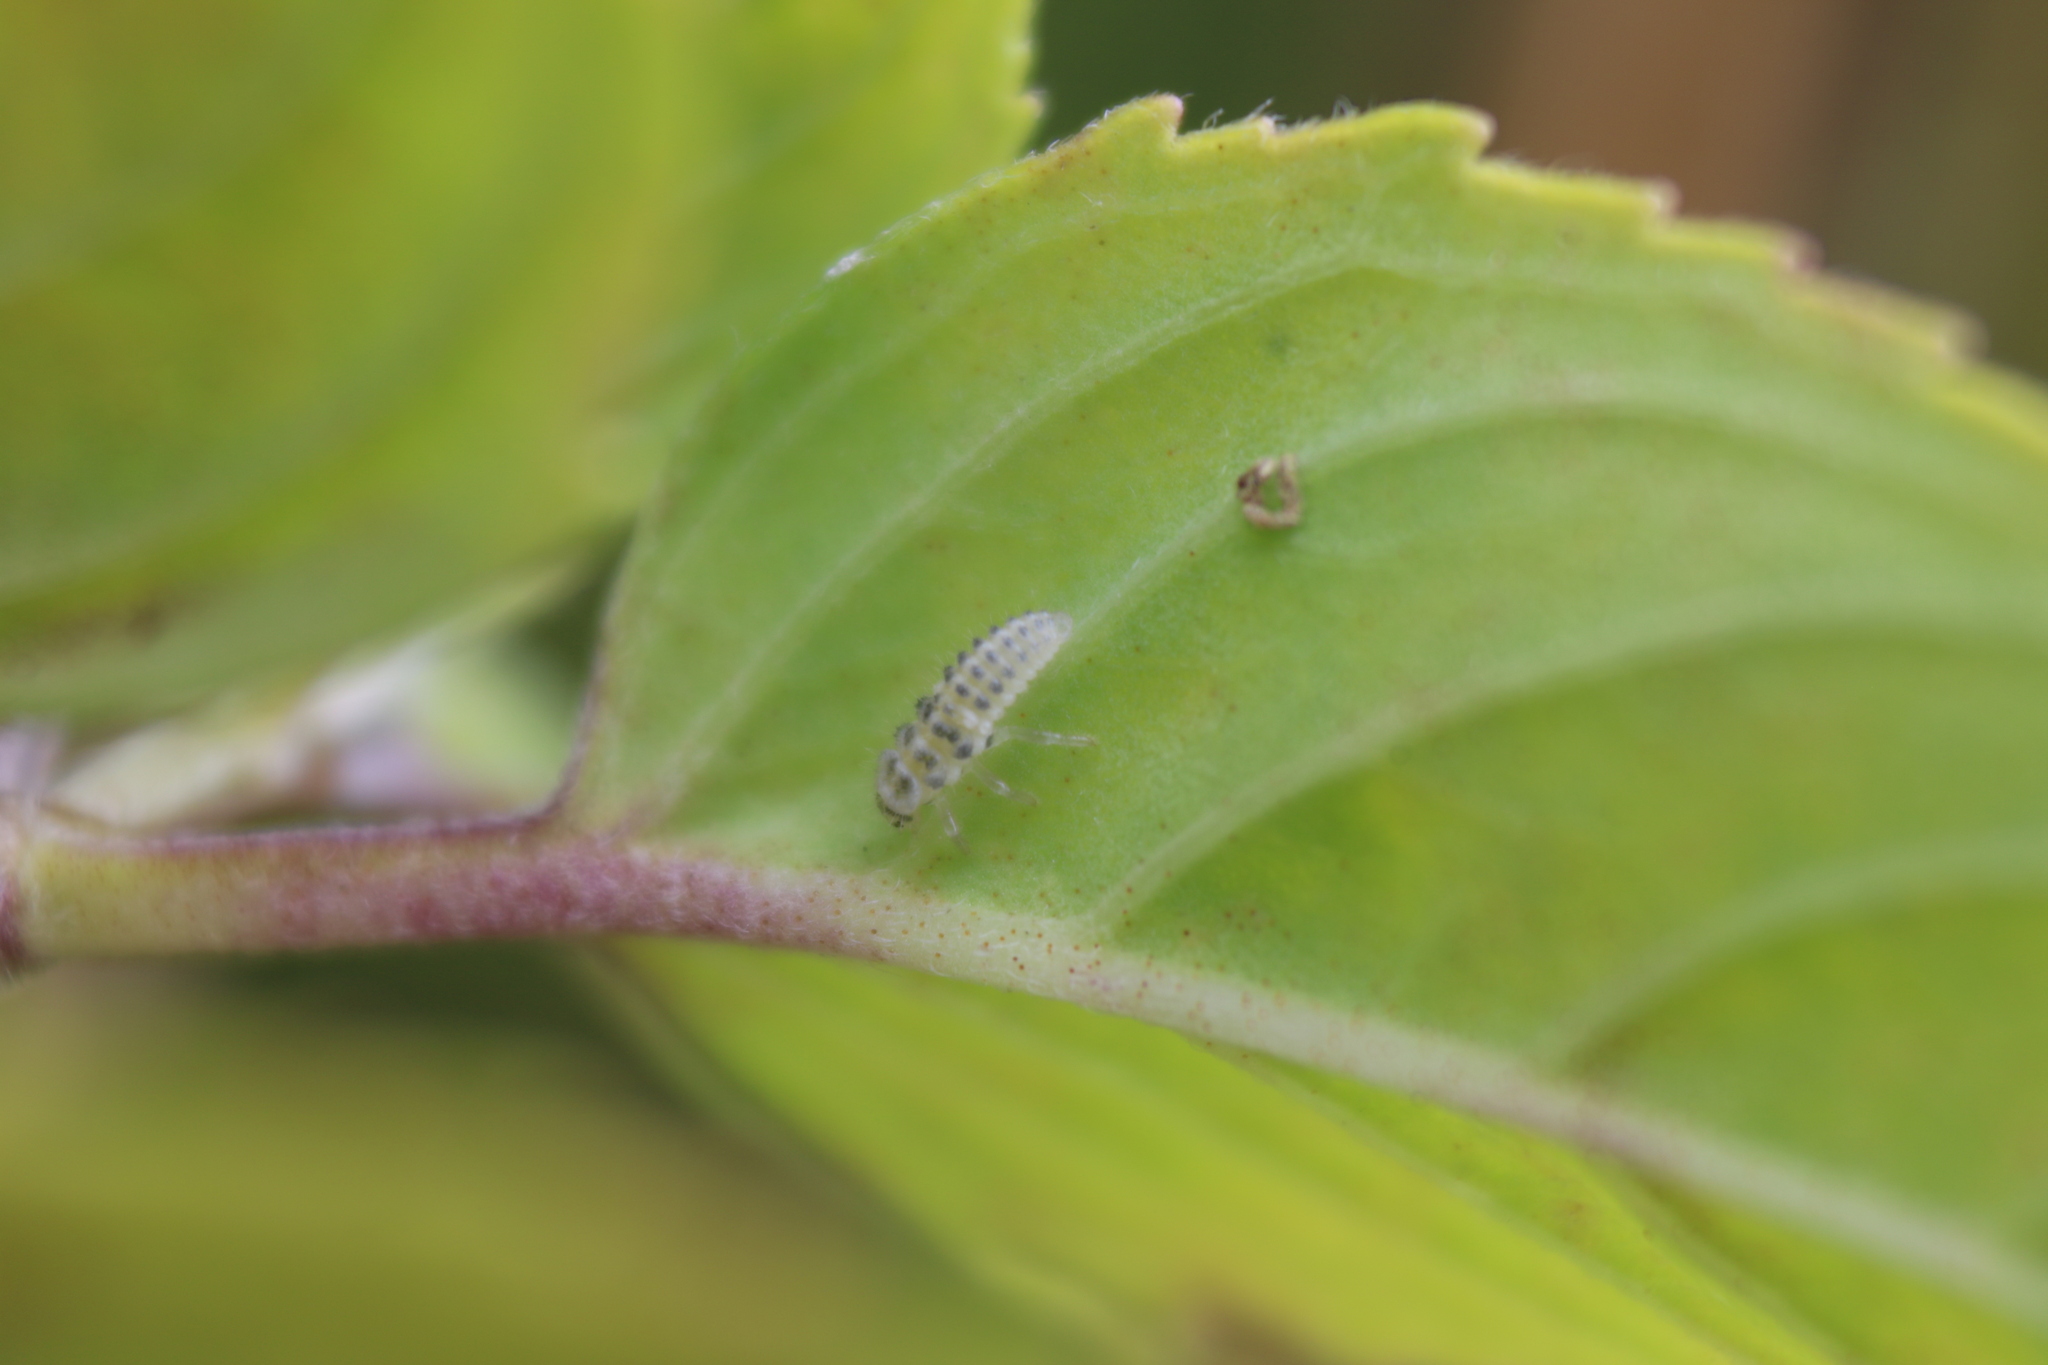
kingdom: Animalia
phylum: Arthropoda
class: Insecta
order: Coleoptera
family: Coccinellidae
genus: Psyllobora
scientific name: Psyllobora vigintimaculata
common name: Ladybird beetle
